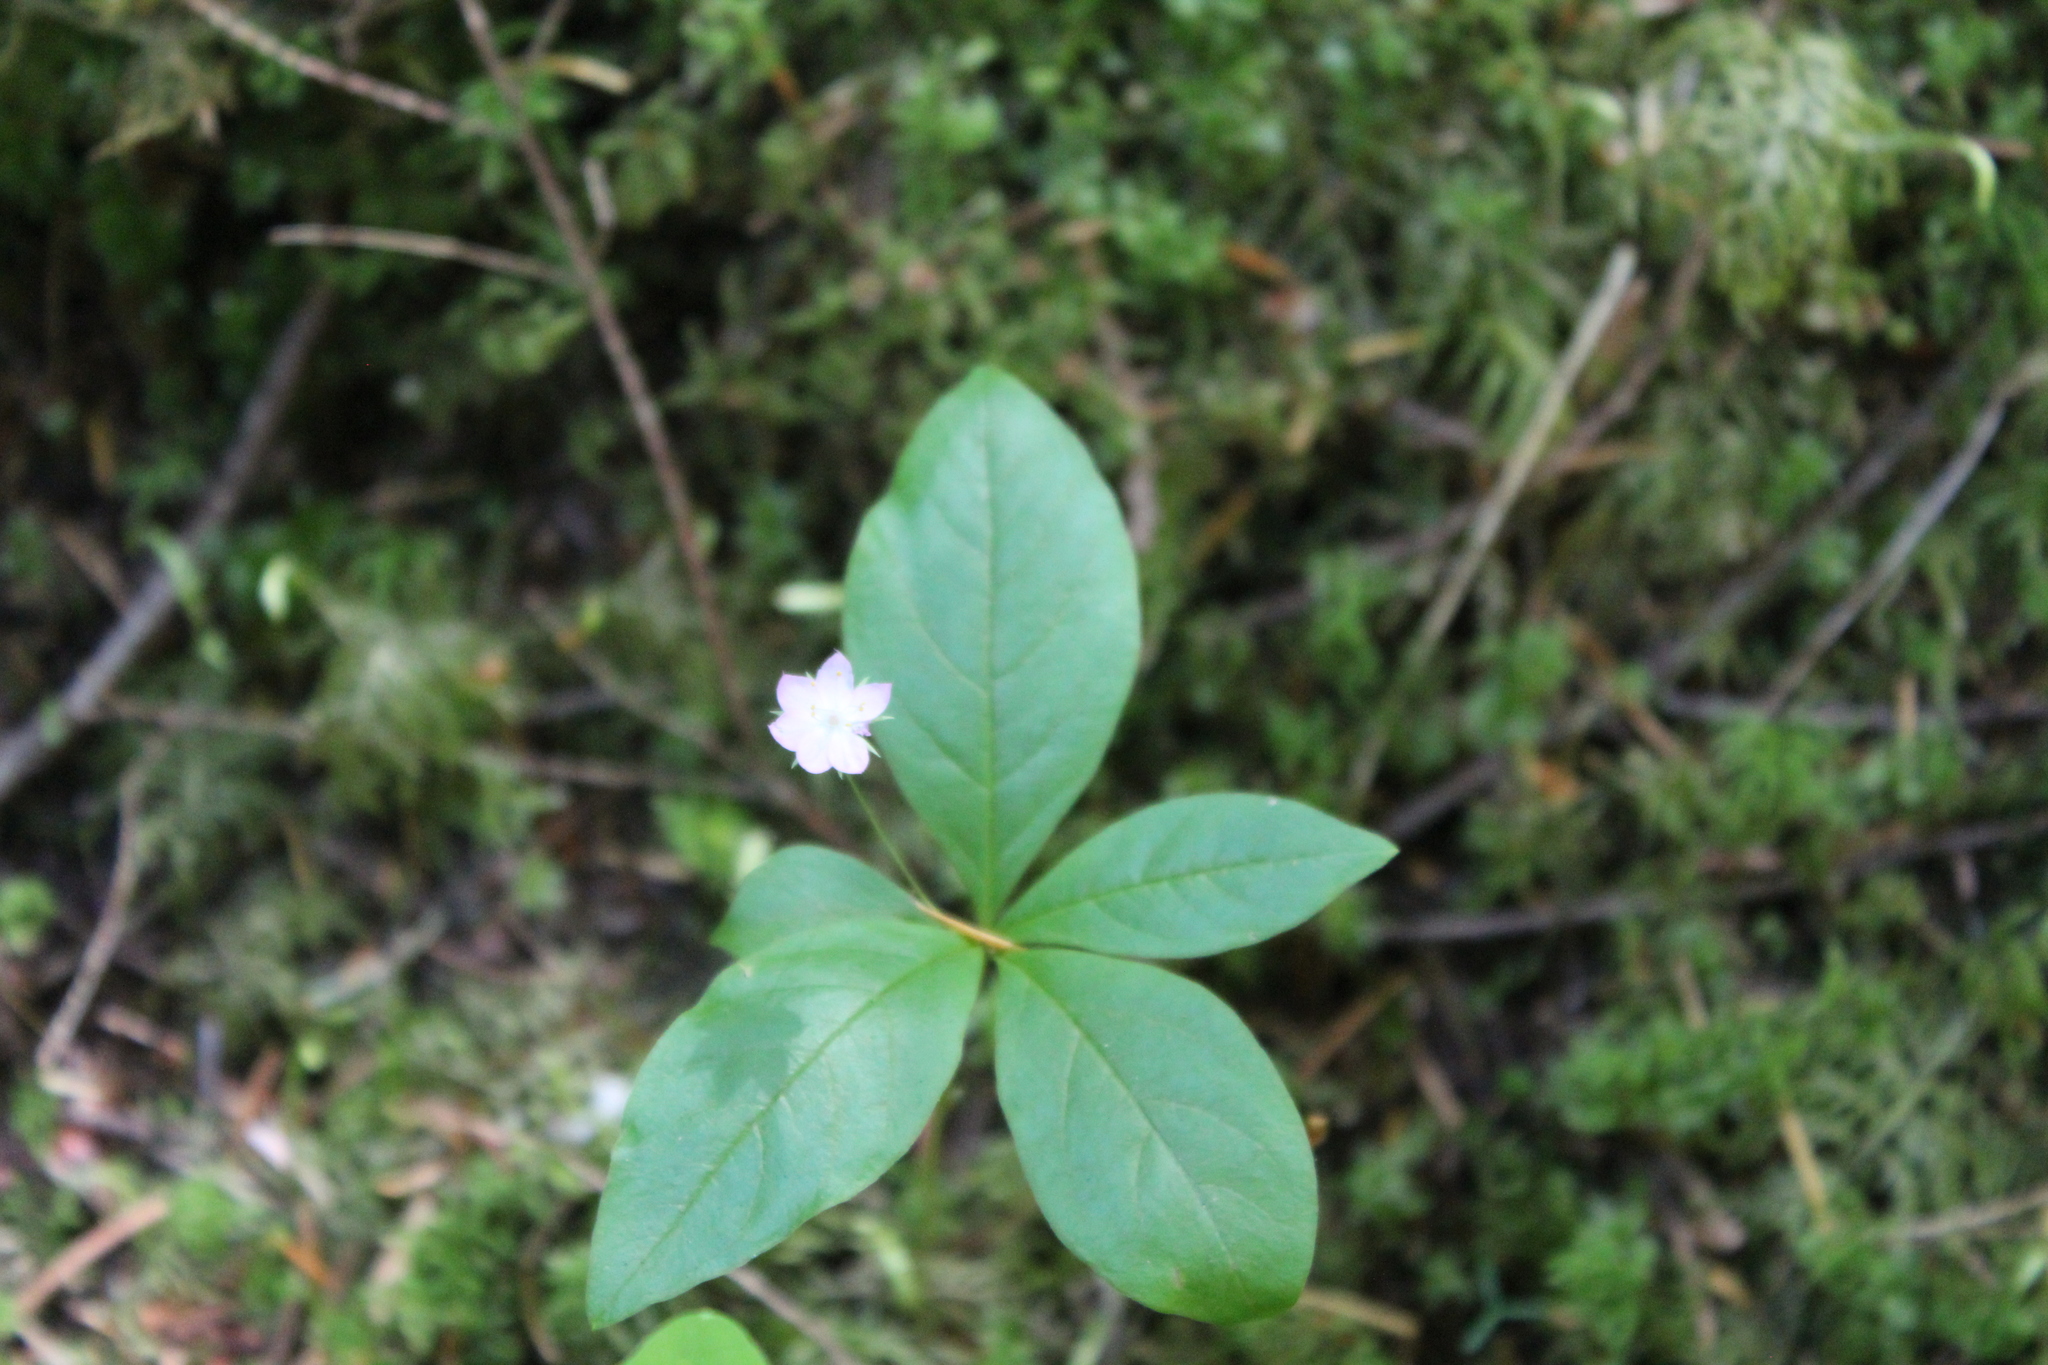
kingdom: Plantae
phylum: Tracheophyta
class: Magnoliopsida
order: Ericales
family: Primulaceae
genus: Lysimachia
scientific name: Lysimachia latifolia
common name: Pacific starflower
